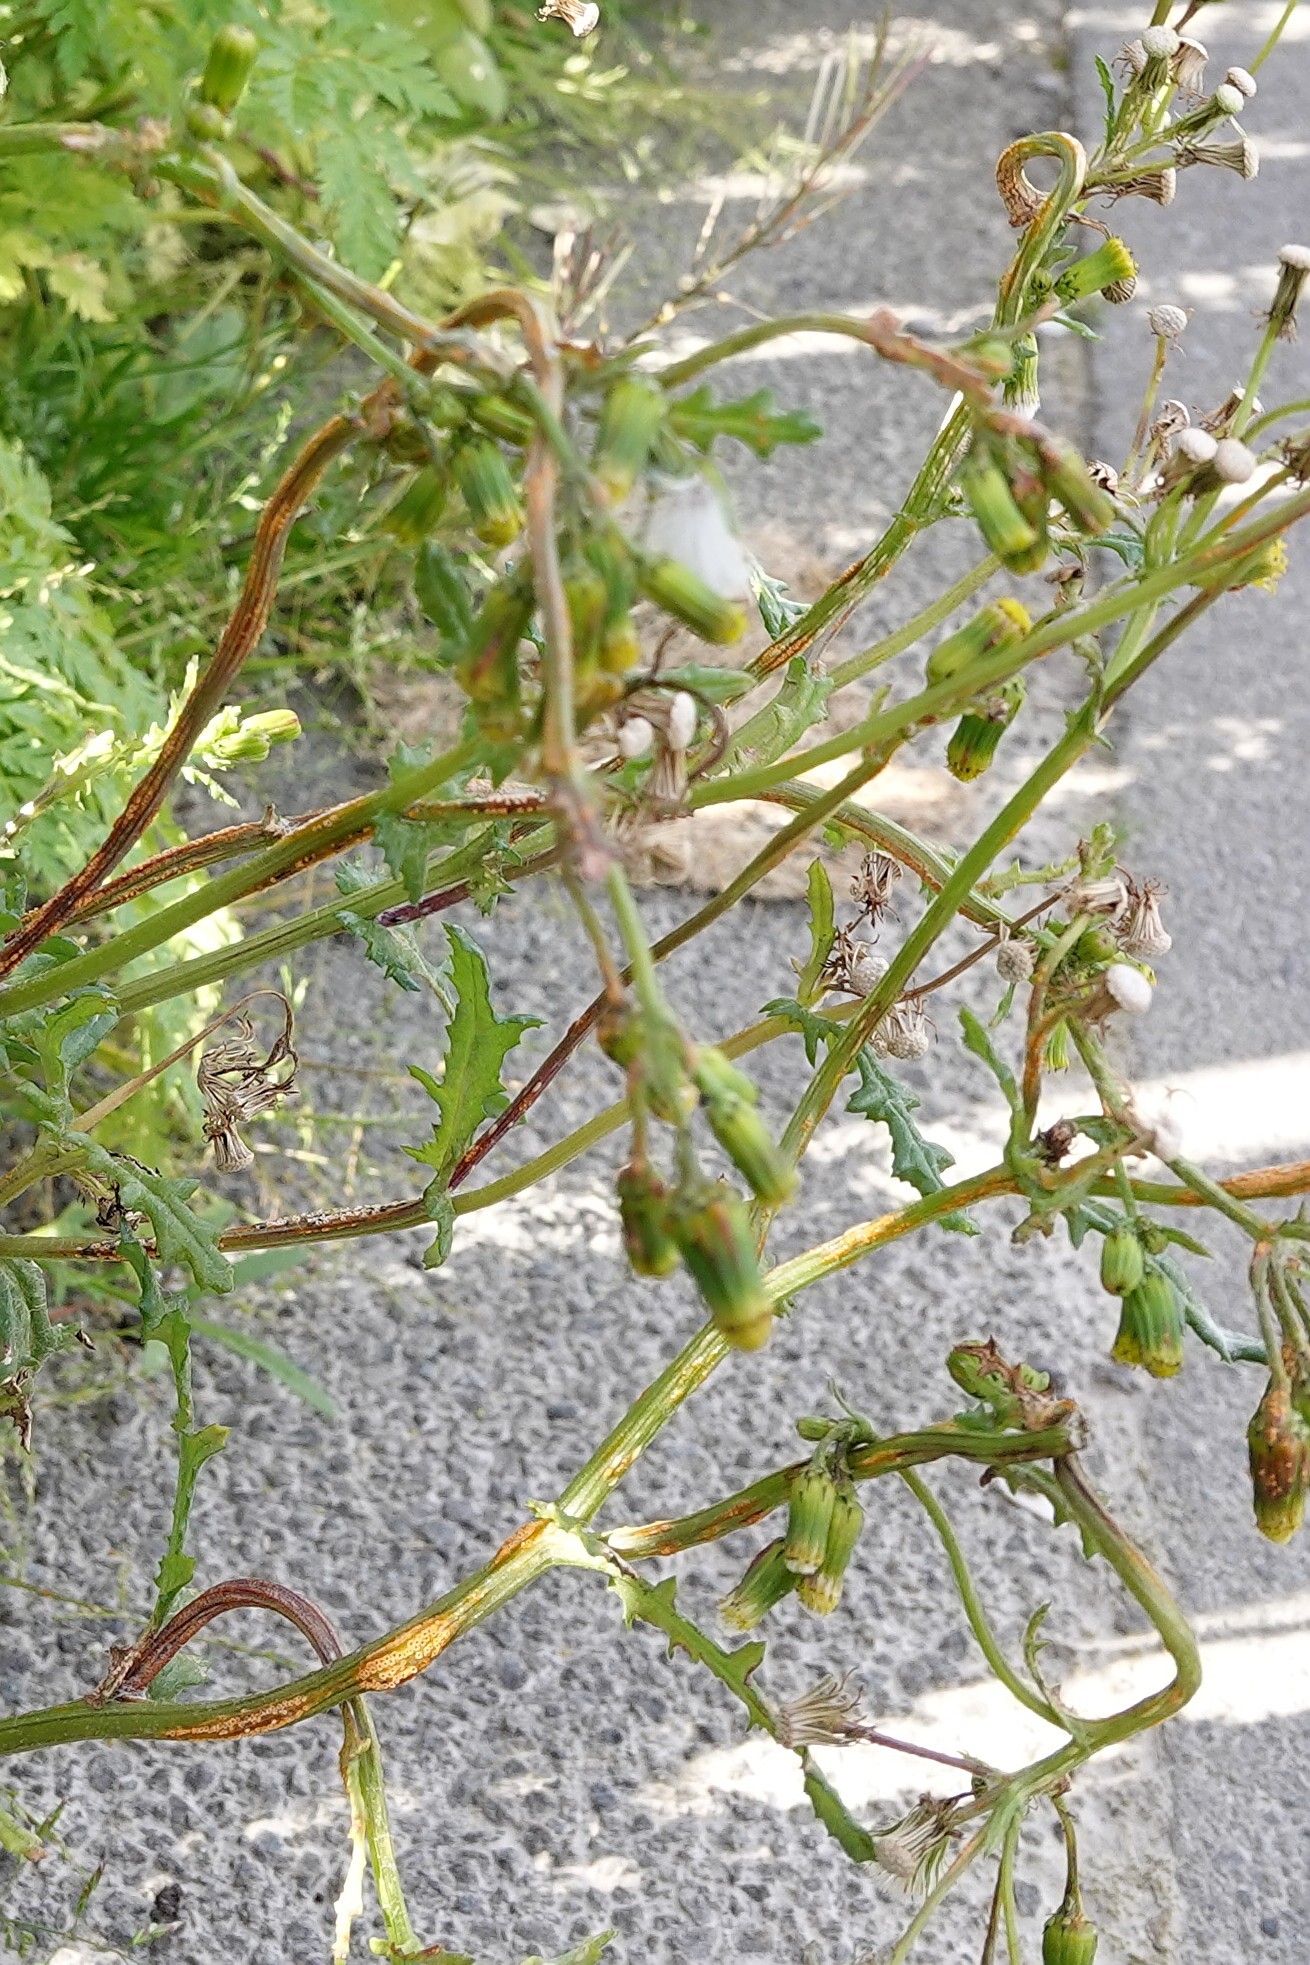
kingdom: Fungi
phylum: Basidiomycota
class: Pucciniomycetes
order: Pucciniales
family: Pucciniaceae
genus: Puccinia
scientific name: Puccinia lagenophorae
